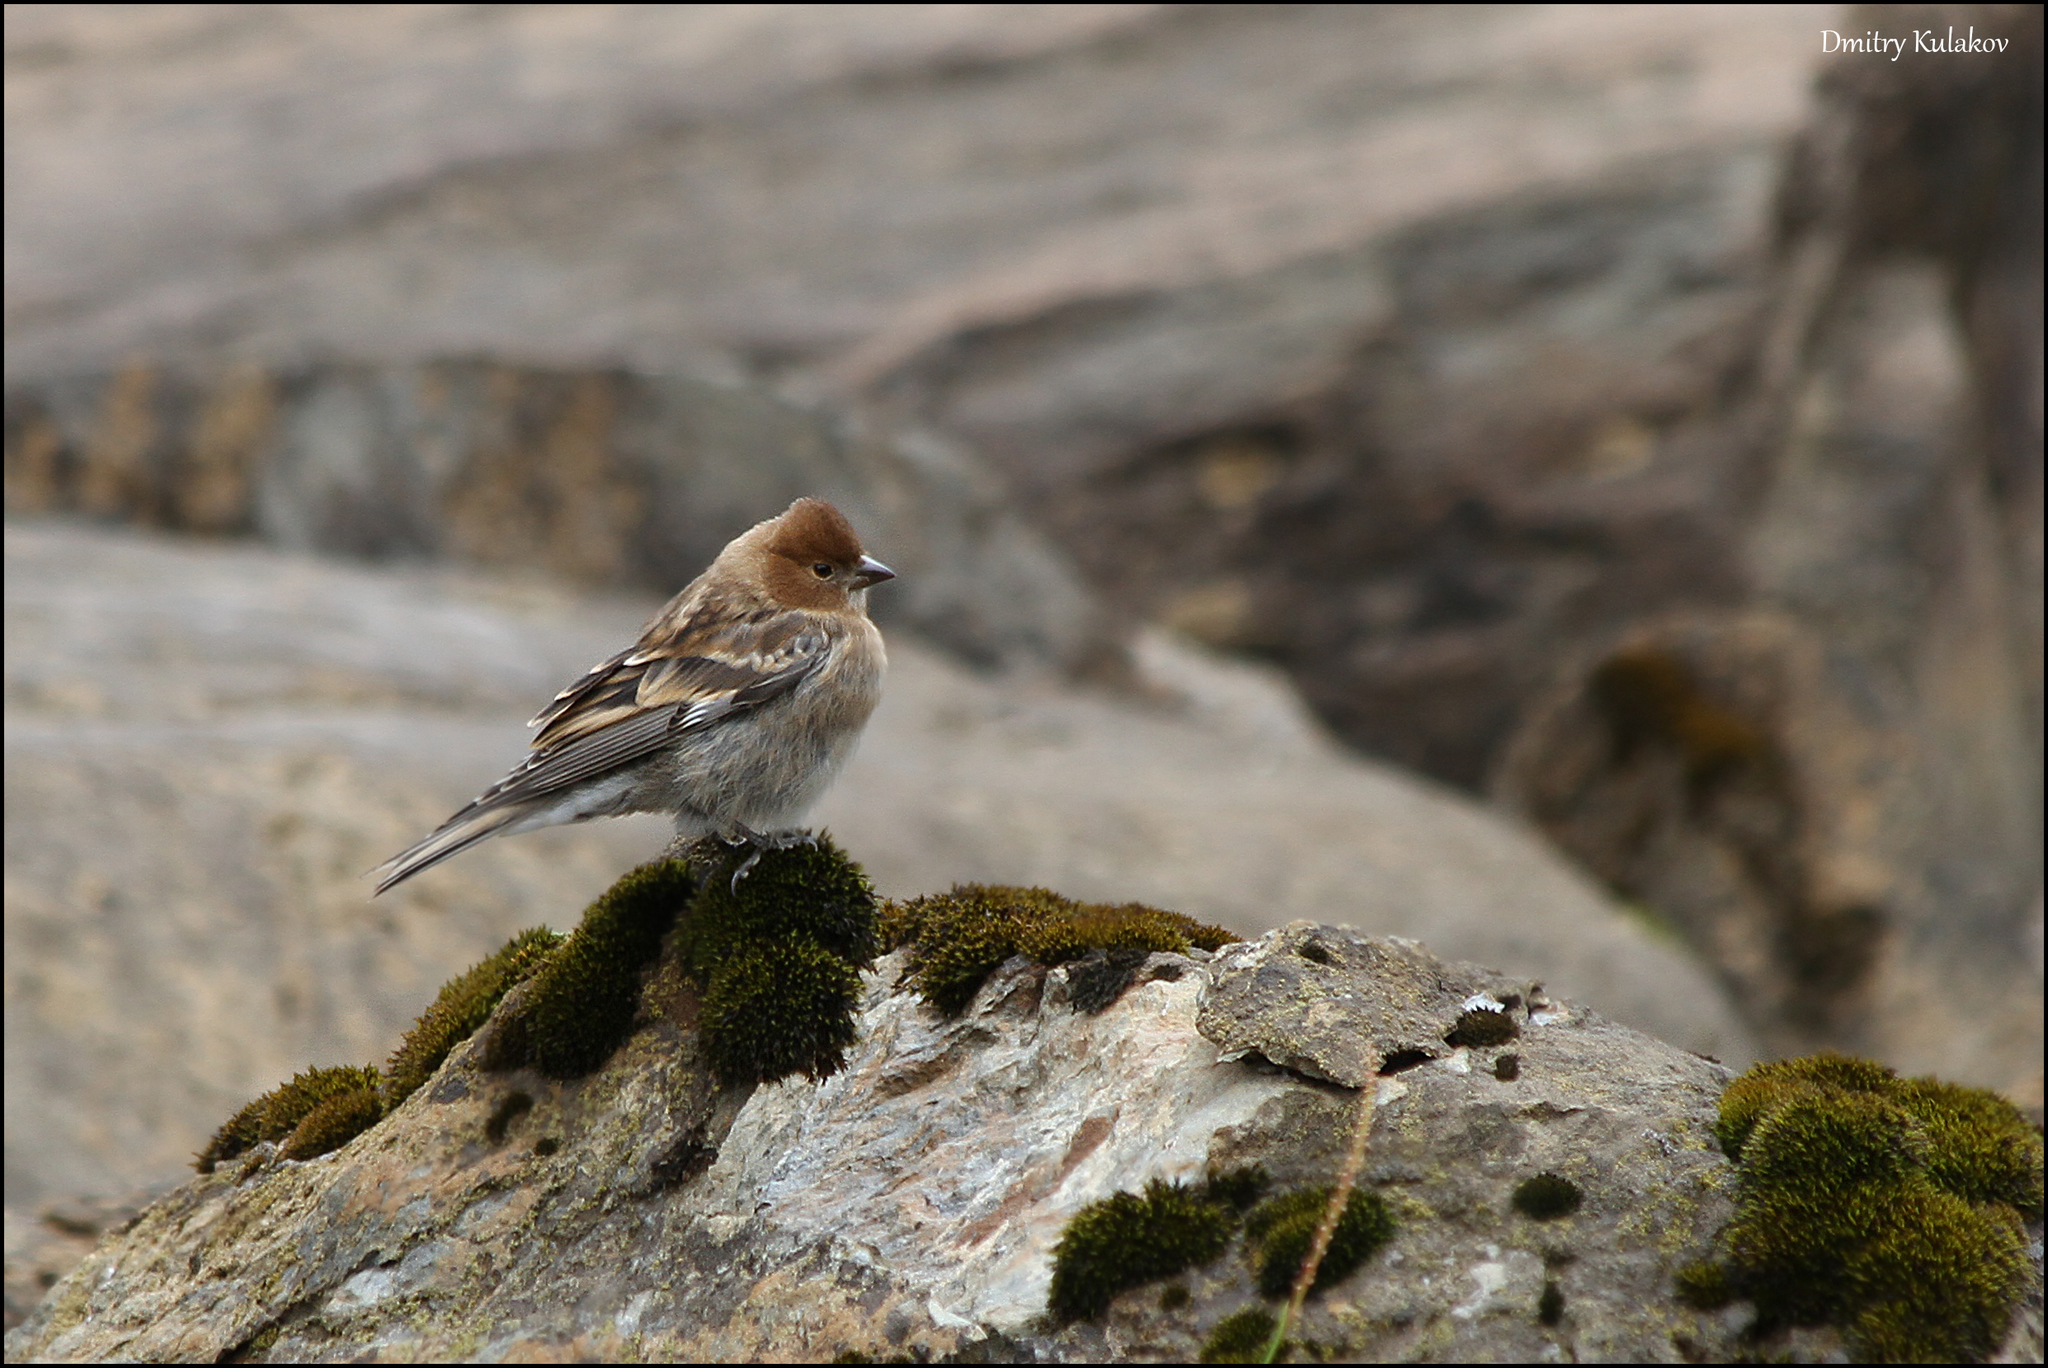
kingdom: Animalia
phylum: Chordata
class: Aves
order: Passeriformes
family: Fringillidae
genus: Leucosticte
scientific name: Leucosticte nemoricola
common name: Plain mountain finch
